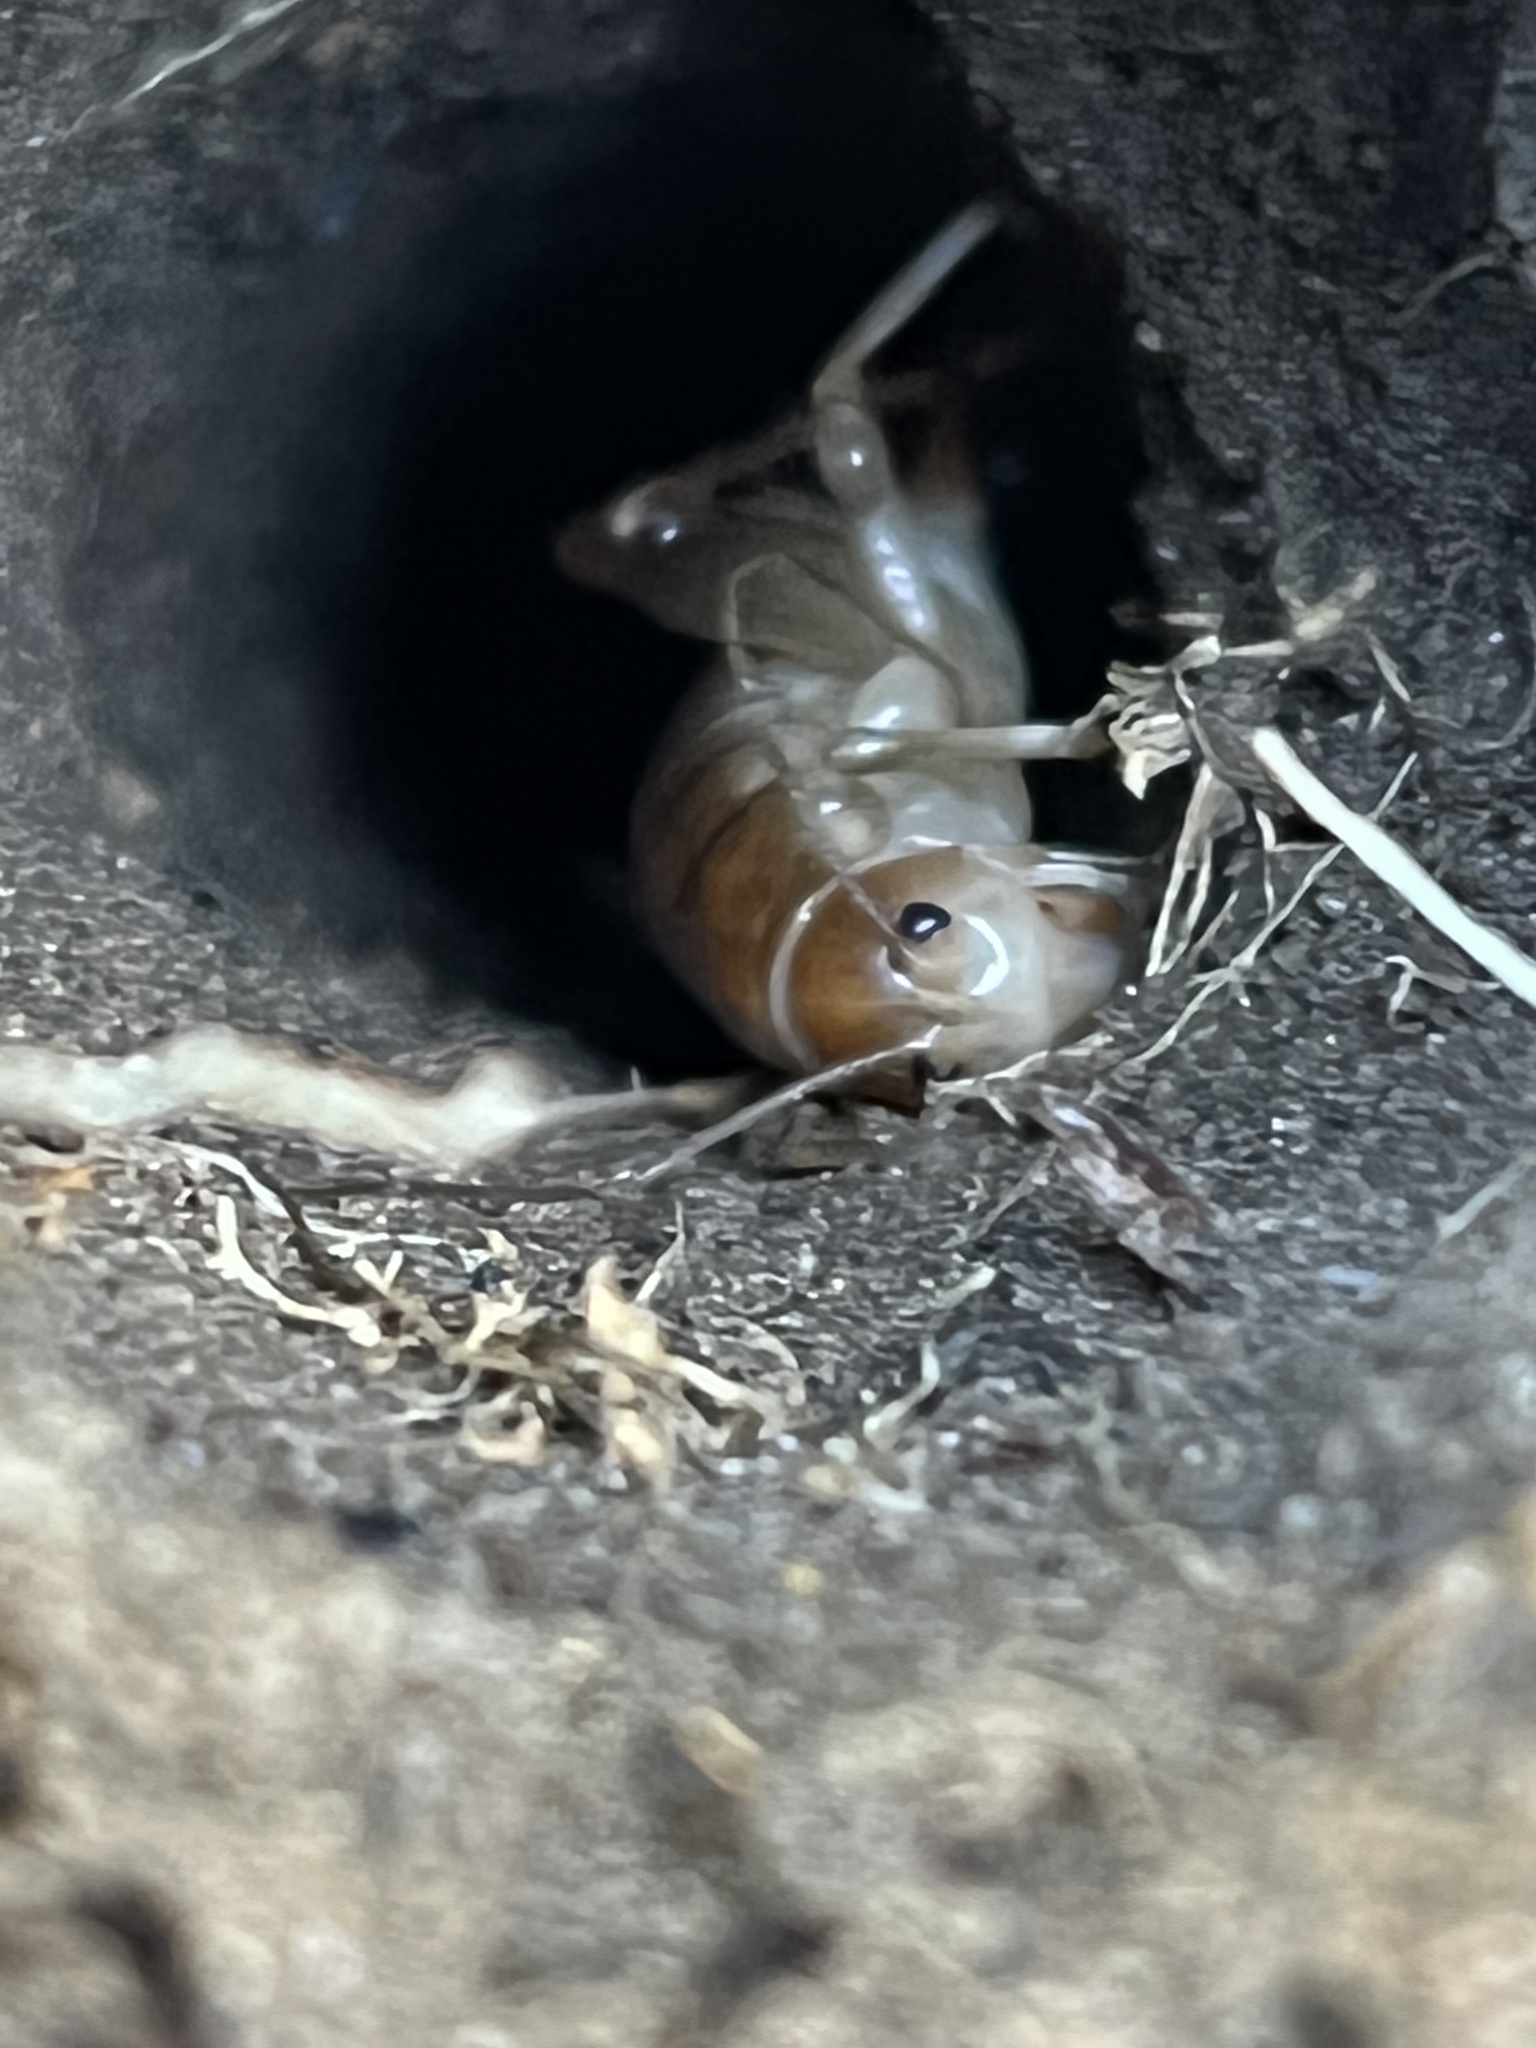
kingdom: Animalia
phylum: Arthropoda
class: Insecta
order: Orthoptera
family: Rhaphidophoridae
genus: Ceuthophilus
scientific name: Ceuthophilus californianus
